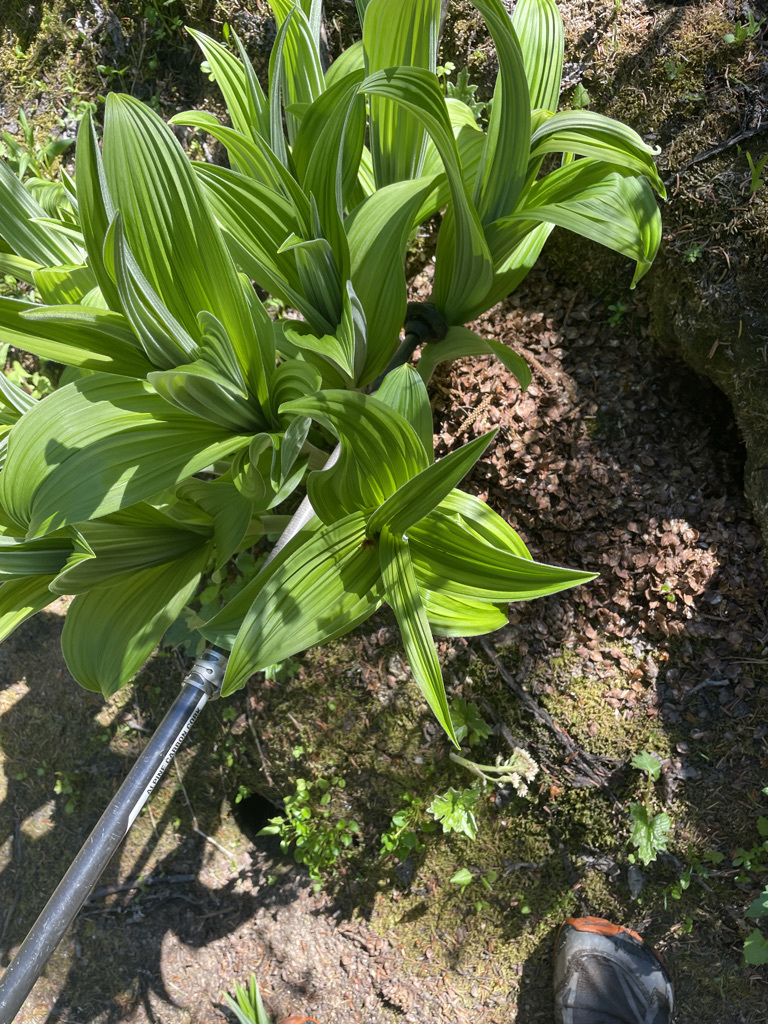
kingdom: Plantae
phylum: Tracheophyta
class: Liliopsida
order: Liliales
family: Melanthiaceae
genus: Veratrum
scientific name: Veratrum viride
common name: American false hellebore
